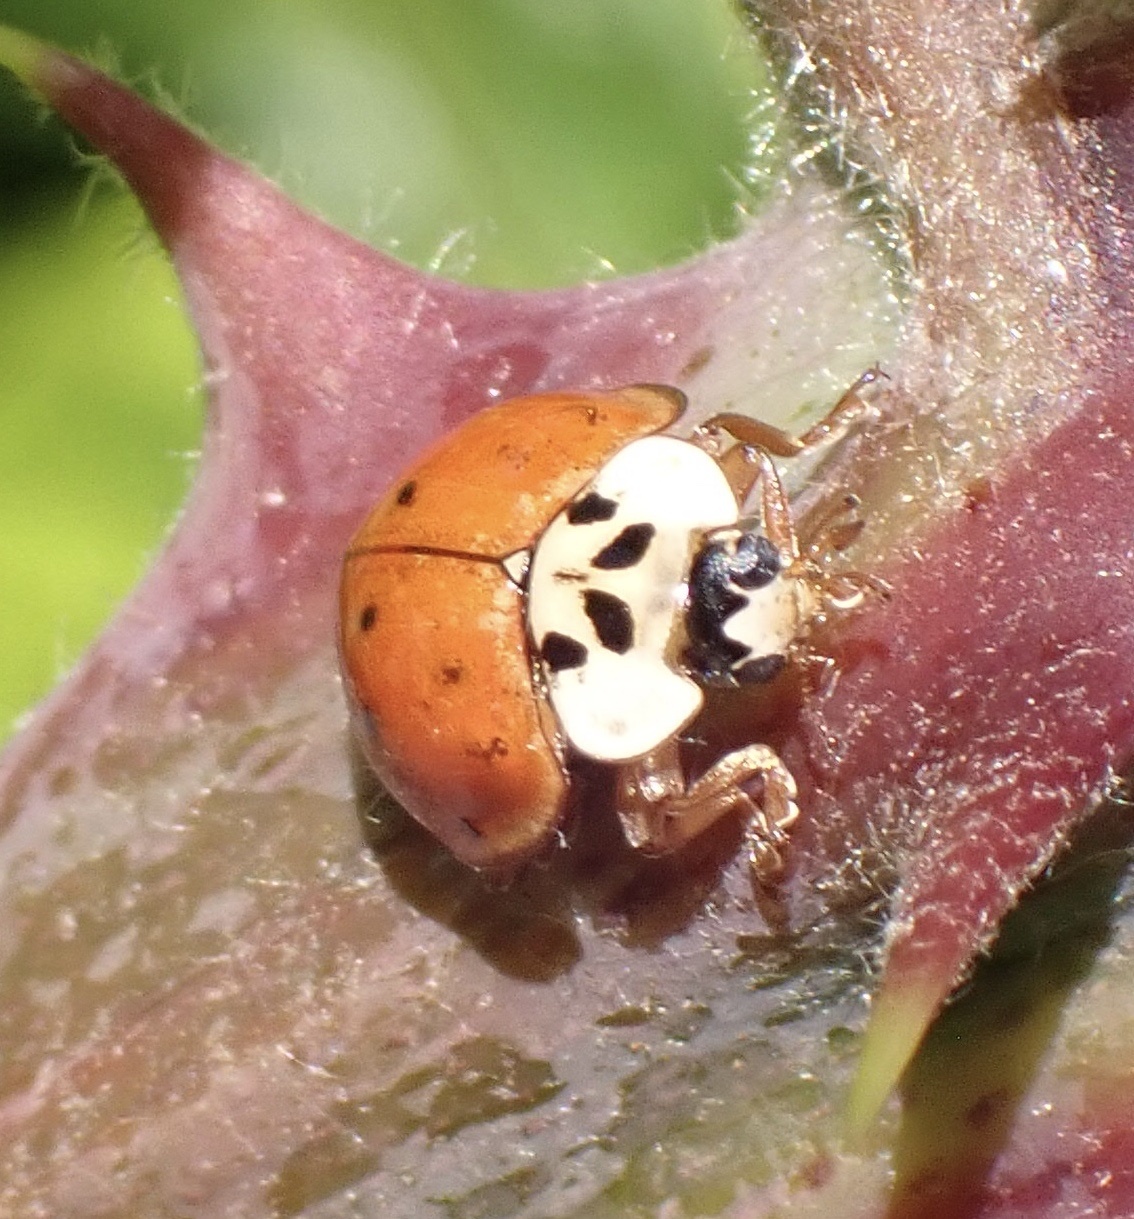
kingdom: Animalia
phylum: Arthropoda
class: Insecta
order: Coleoptera
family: Coccinellidae
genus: Harmonia
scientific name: Harmonia axyridis
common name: Harlequin ladybird
